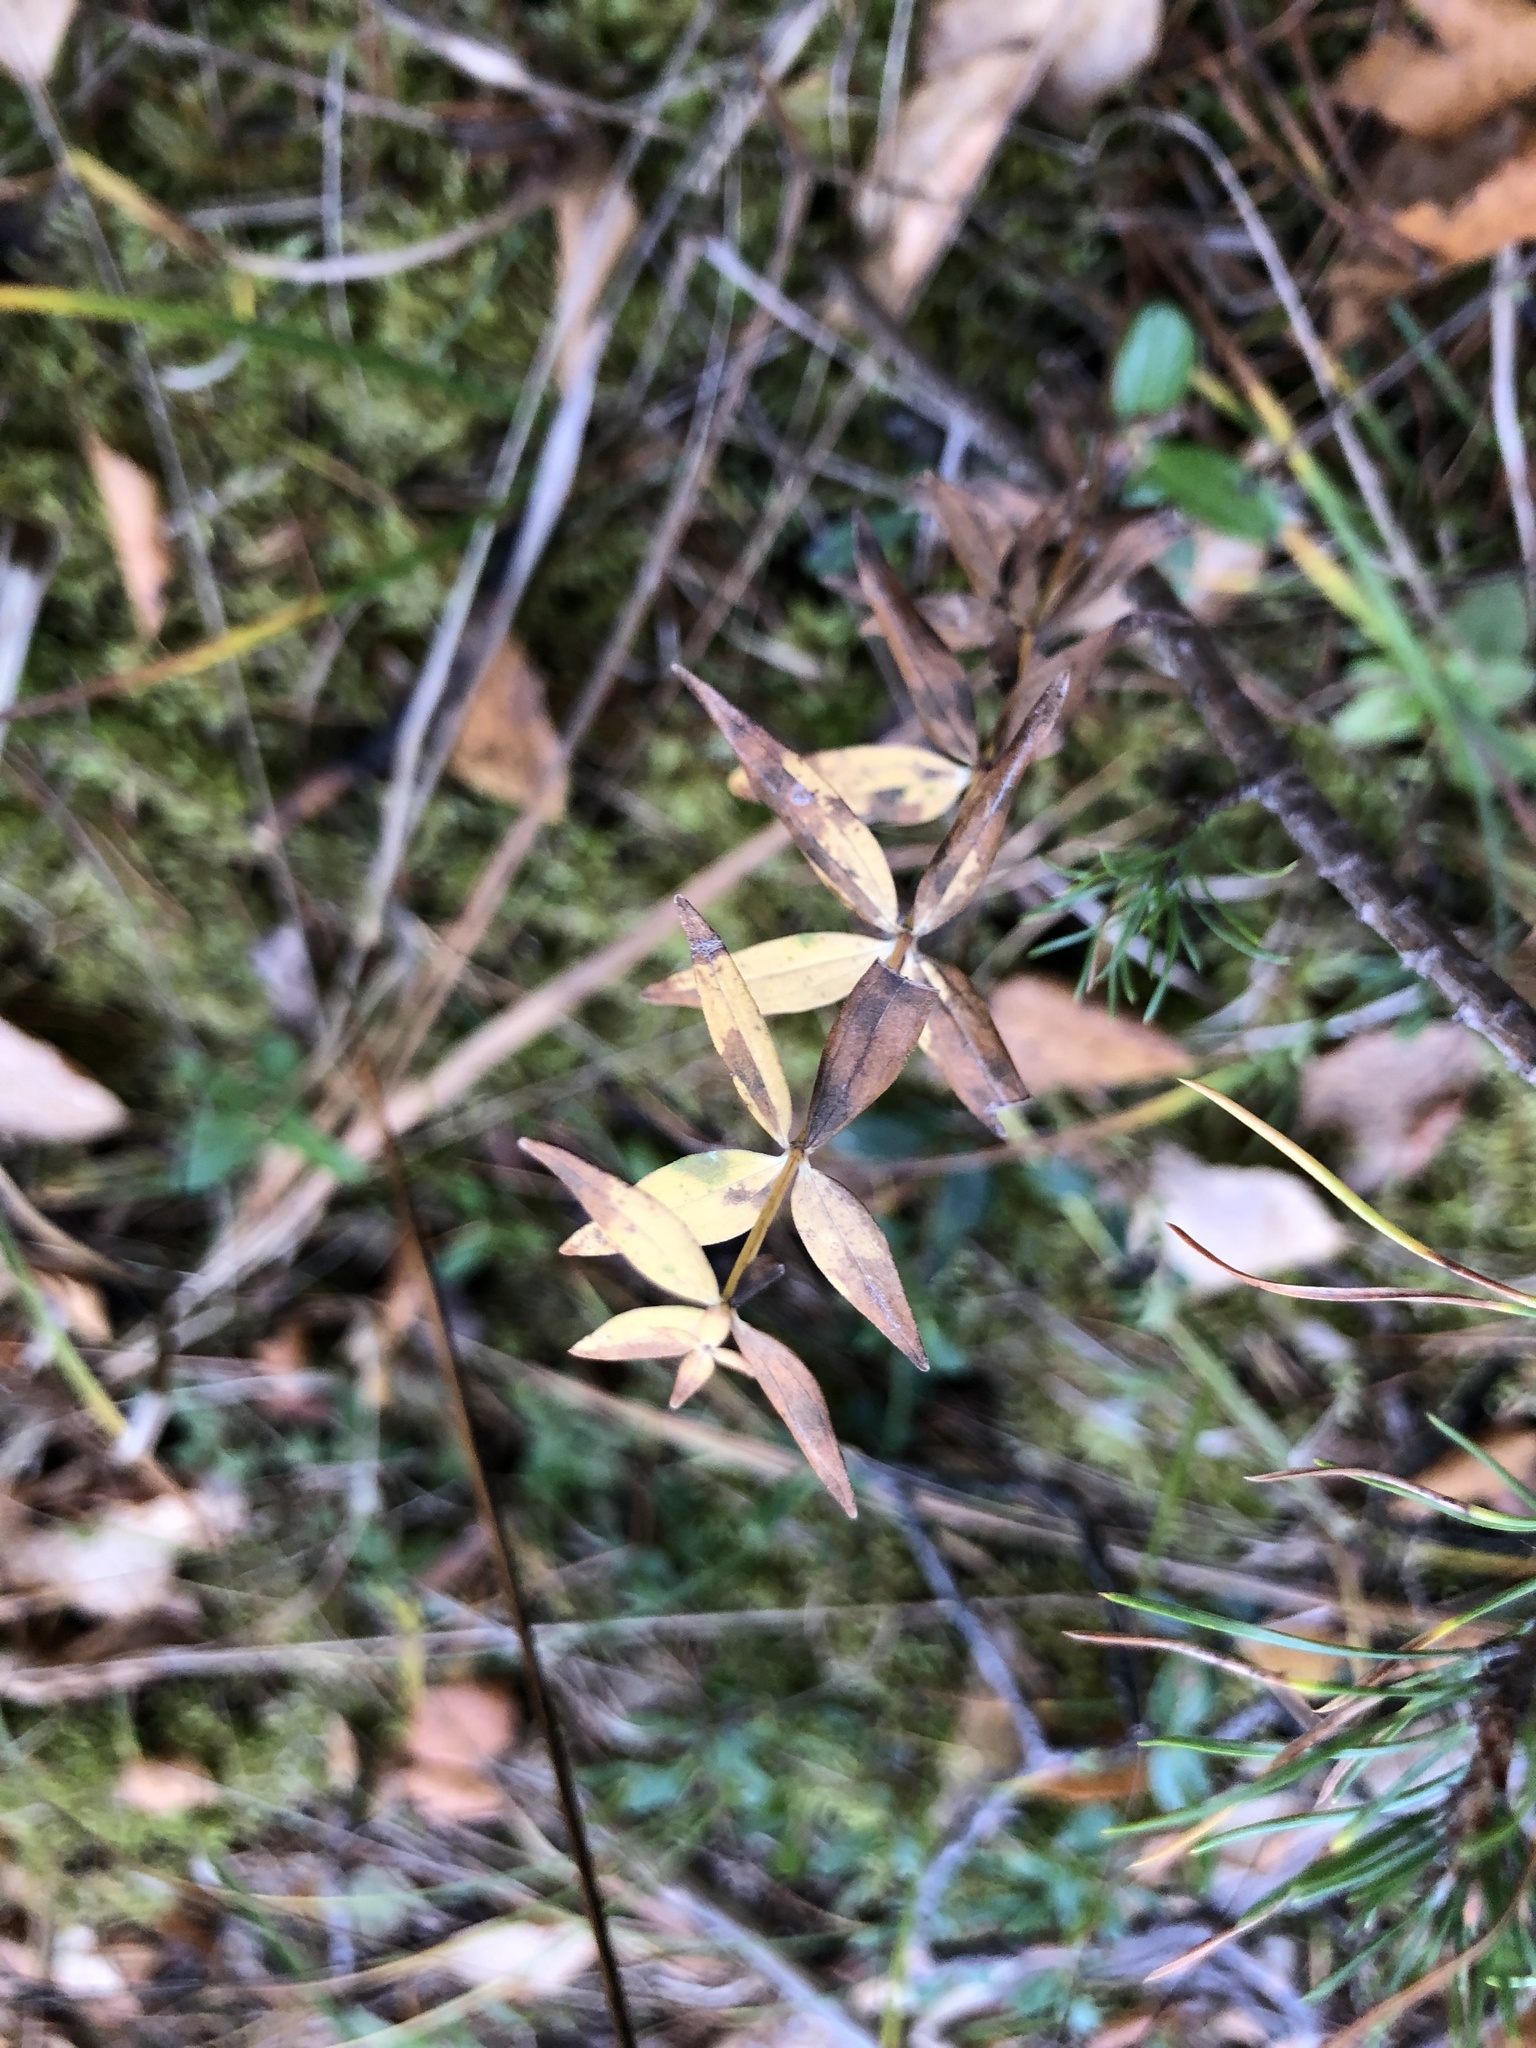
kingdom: Plantae
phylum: Tracheophyta
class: Magnoliopsida
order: Gentianales
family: Rubiaceae
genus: Galium
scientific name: Galium boreale
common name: Northern bedstraw
